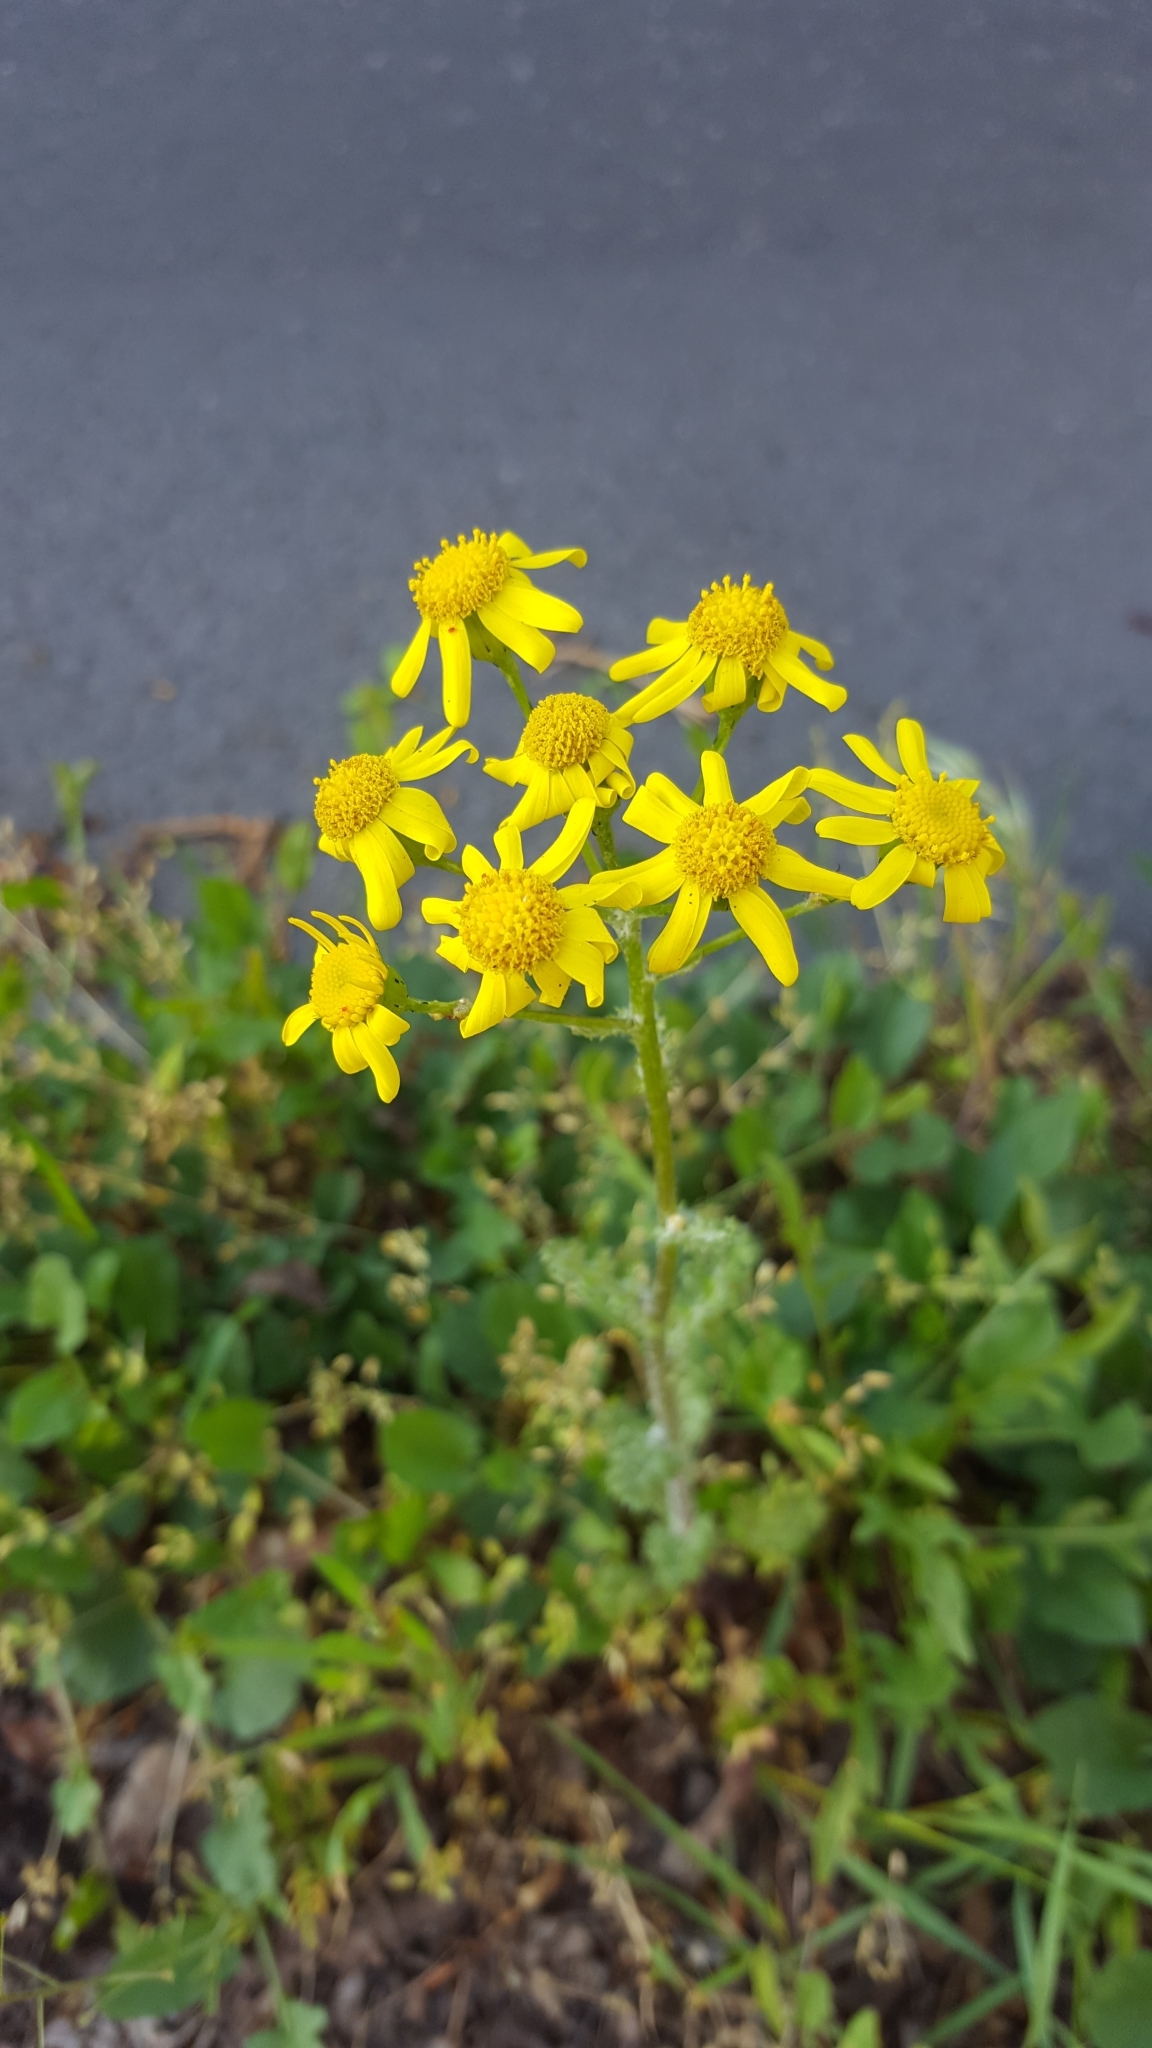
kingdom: Plantae
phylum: Tracheophyta
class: Magnoliopsida
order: Asterales
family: Asteraceae
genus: Senecio
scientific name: Senecio vernalis
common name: Eastern groundsel
